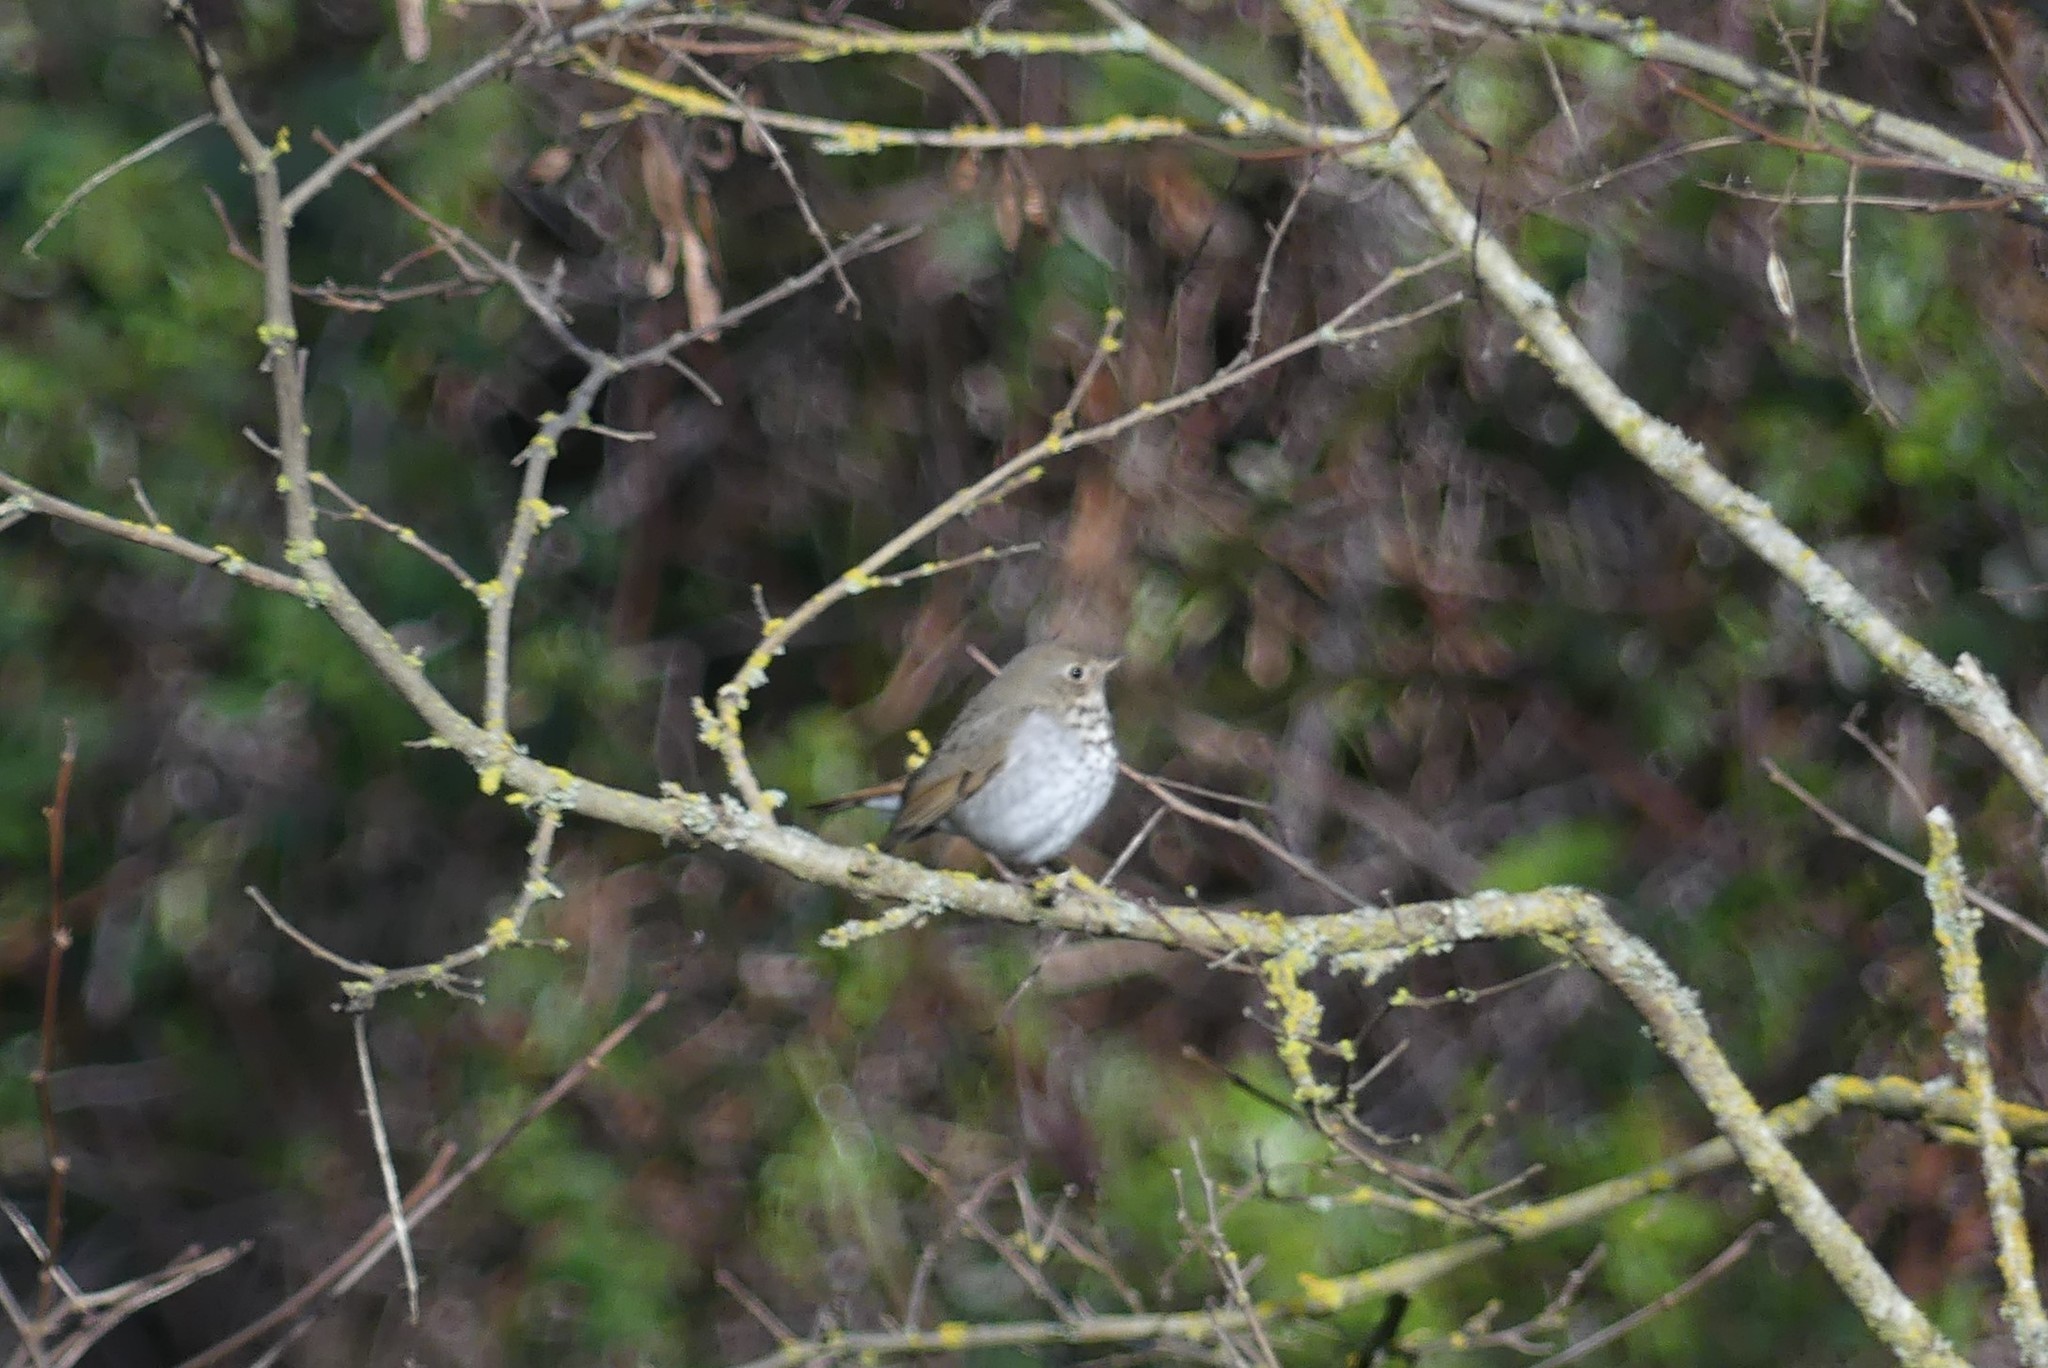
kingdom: Animalia
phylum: Chordata
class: Aves
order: Passeriformes
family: Turdidae
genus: Catharus
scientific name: Catharus guttatus
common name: Hermit thrush
